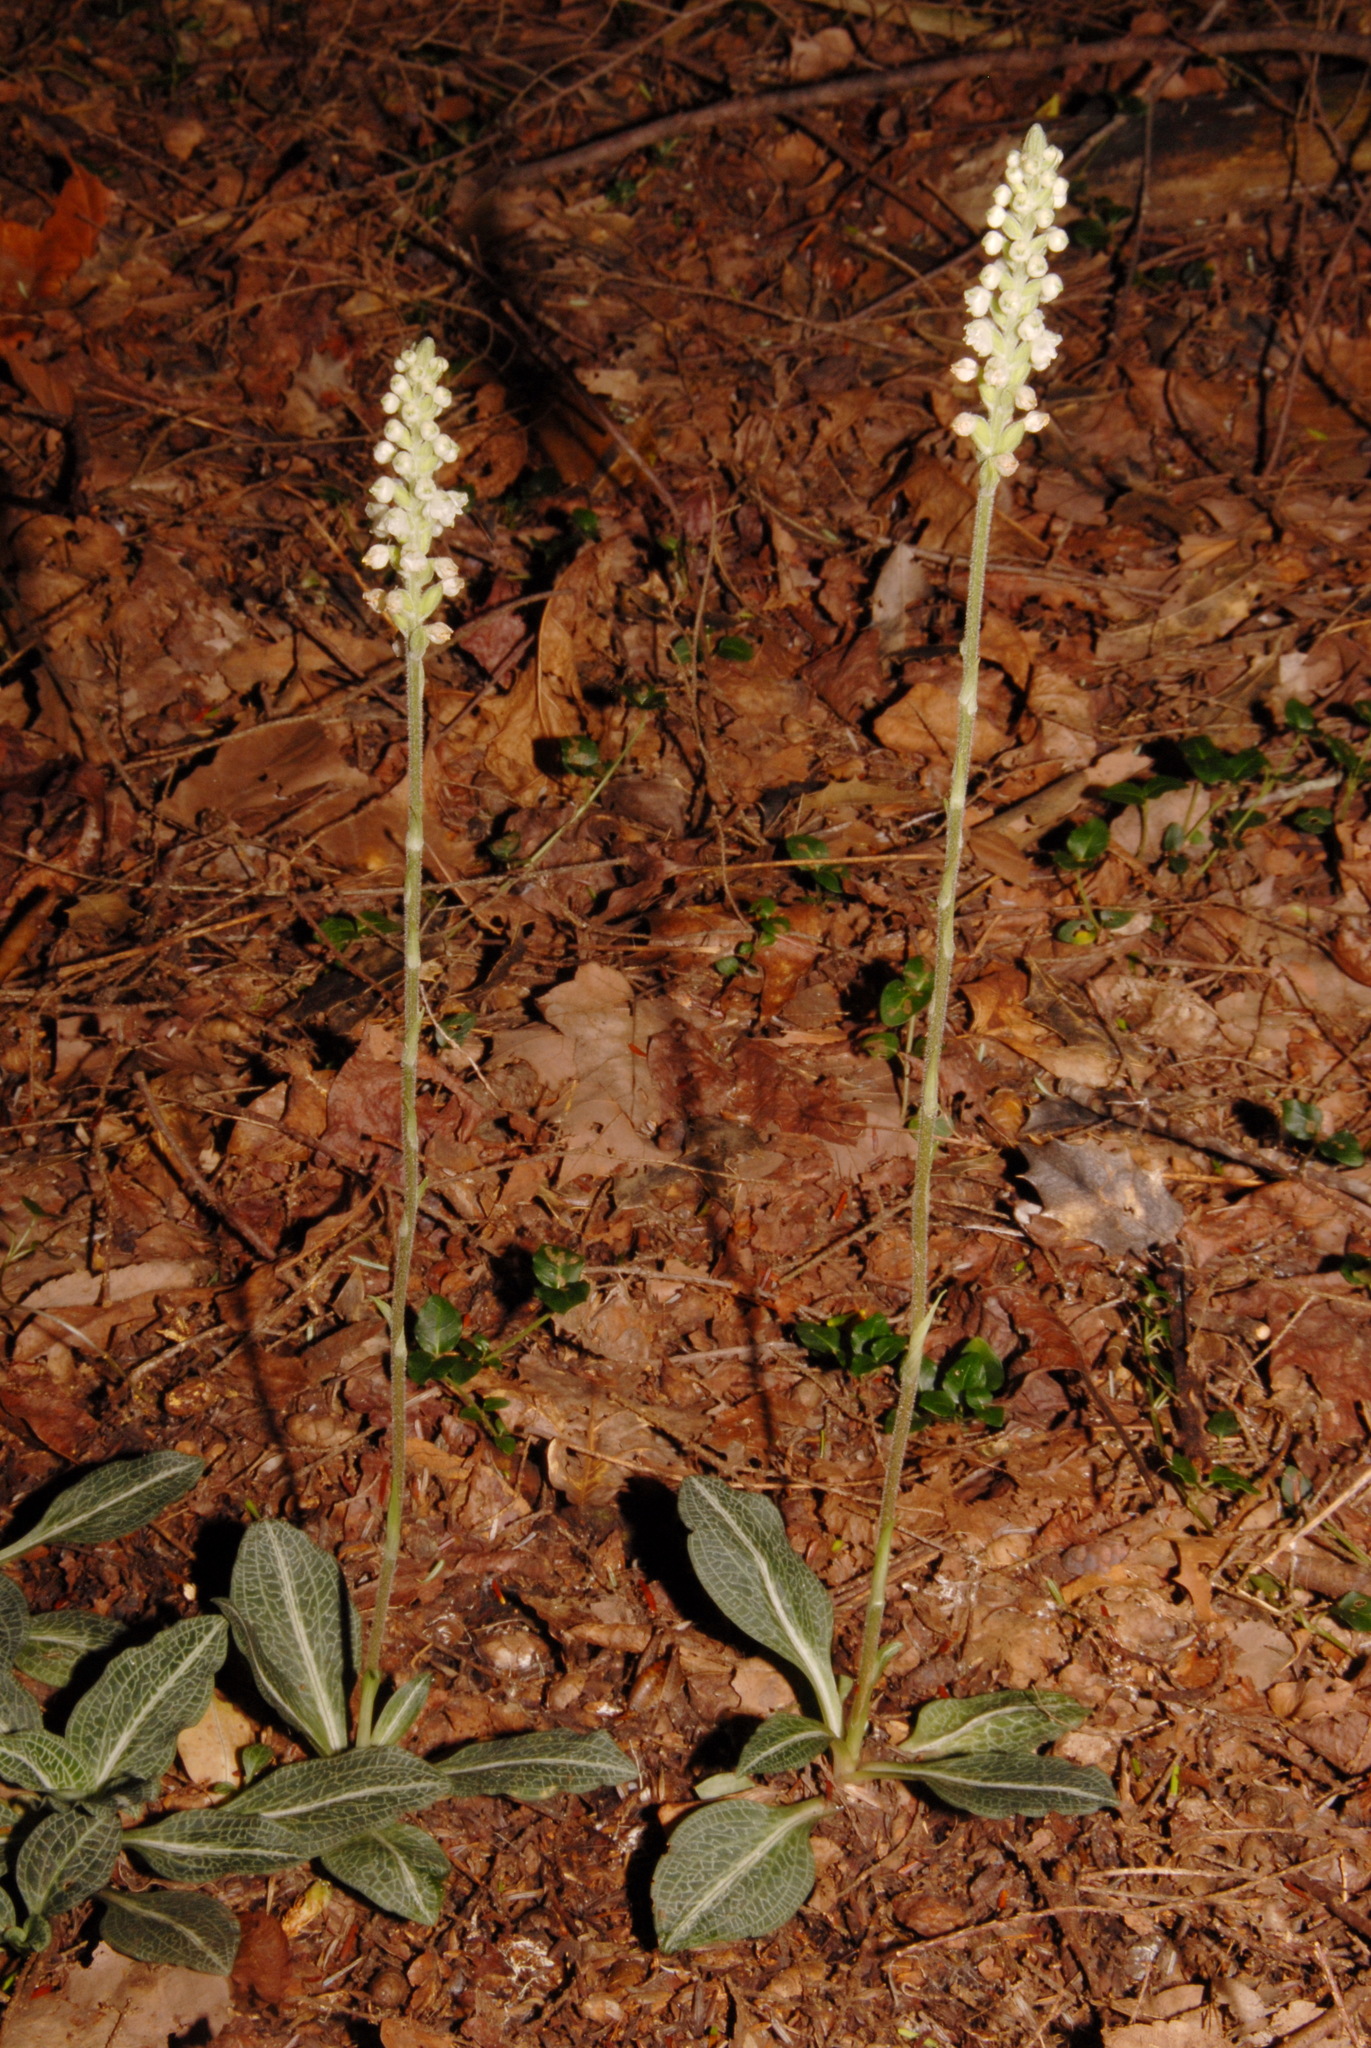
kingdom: Plantae
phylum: Tracheophyta
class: Liliopsida
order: Asparagales
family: Orchidaceae
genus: Goodyera
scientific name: Goodyera pubescens
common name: Downy rattlesnake-plantain
